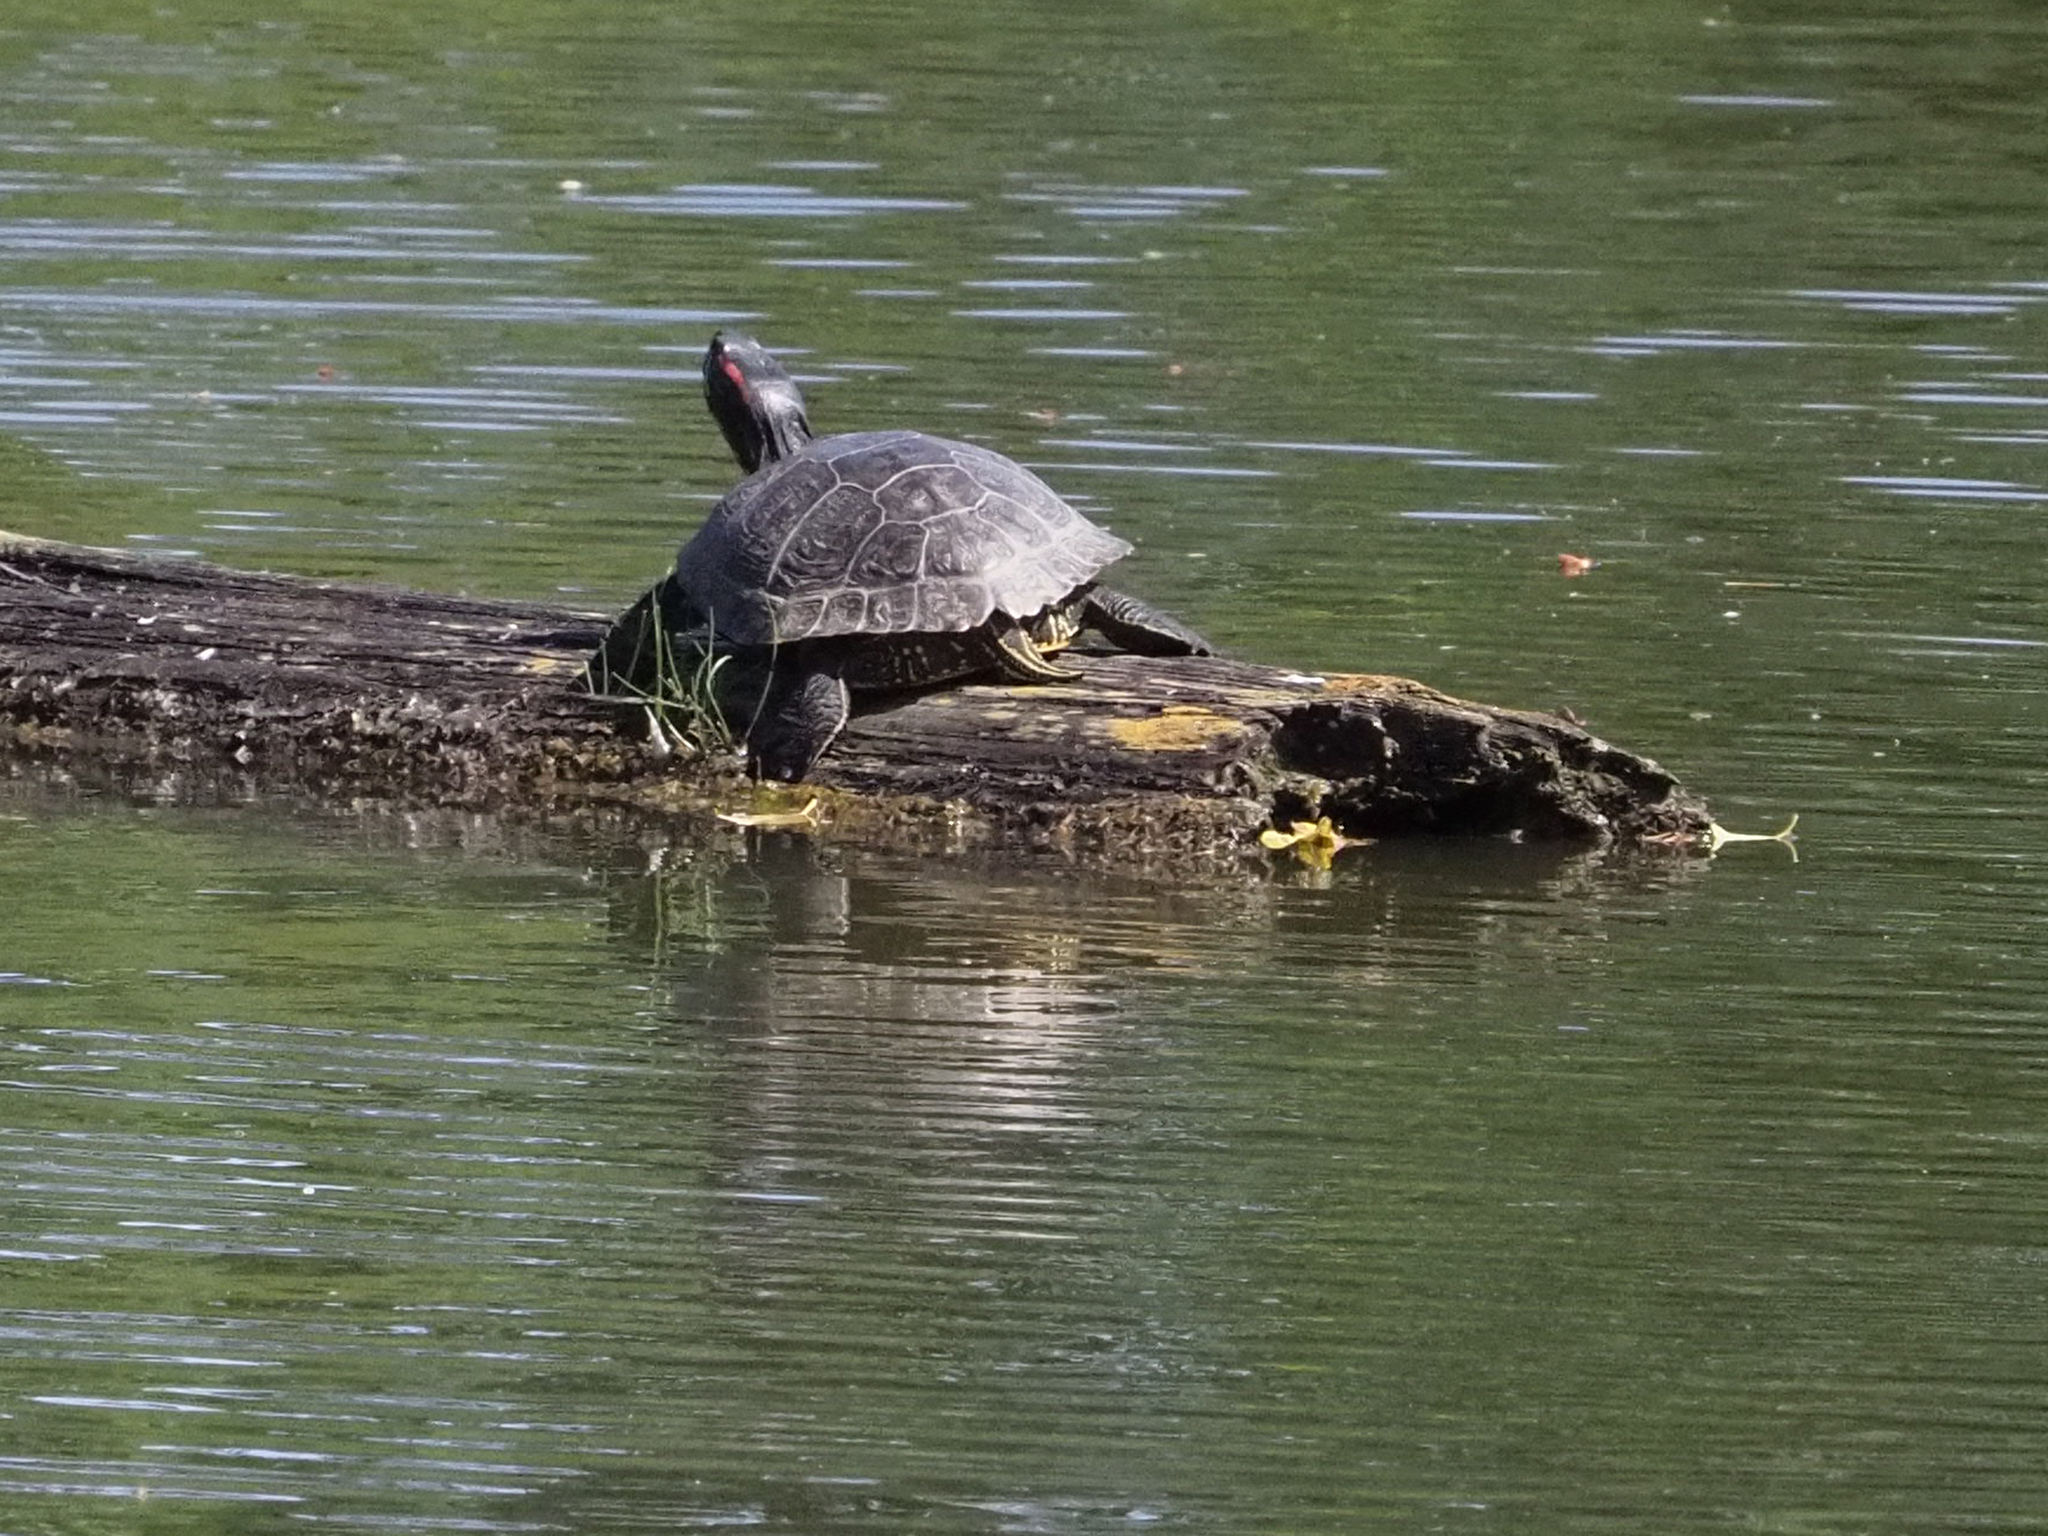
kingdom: Animalia
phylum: Chordata
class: Testudines
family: Emydidae
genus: Trachemys
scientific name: Trachemys scripta
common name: Slider
